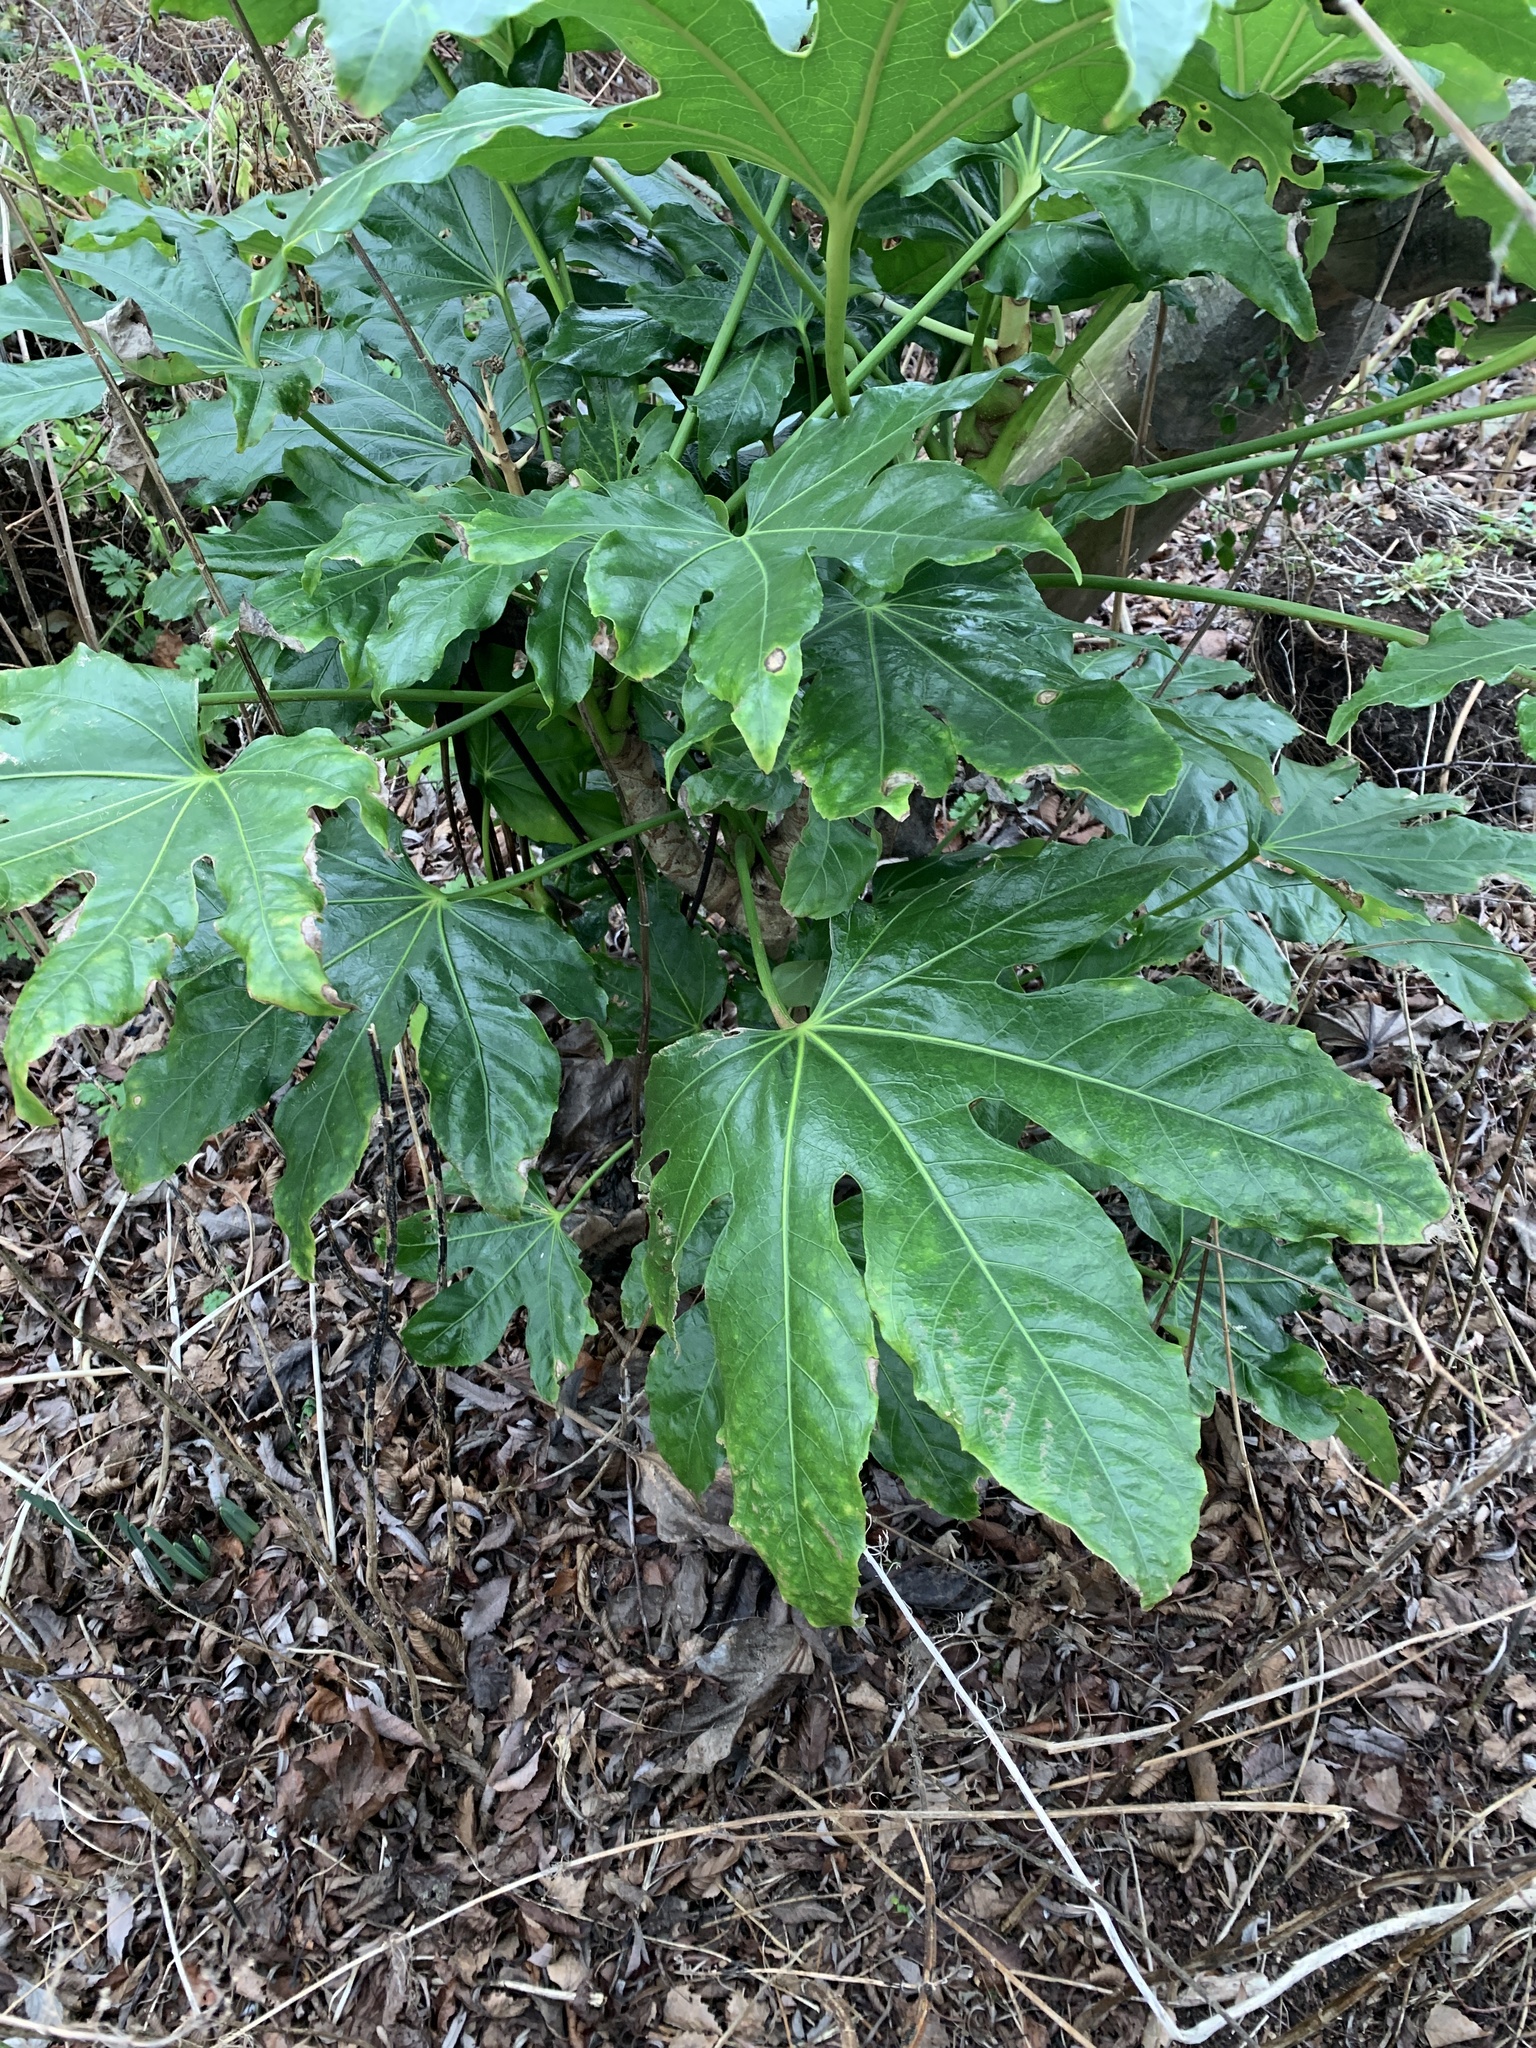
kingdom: Plantae
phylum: Tracheophyta
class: Magnoliopsida
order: Apiales
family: Araliaceae
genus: Fatsia
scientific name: Fatsia japonica
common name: Fatsia
